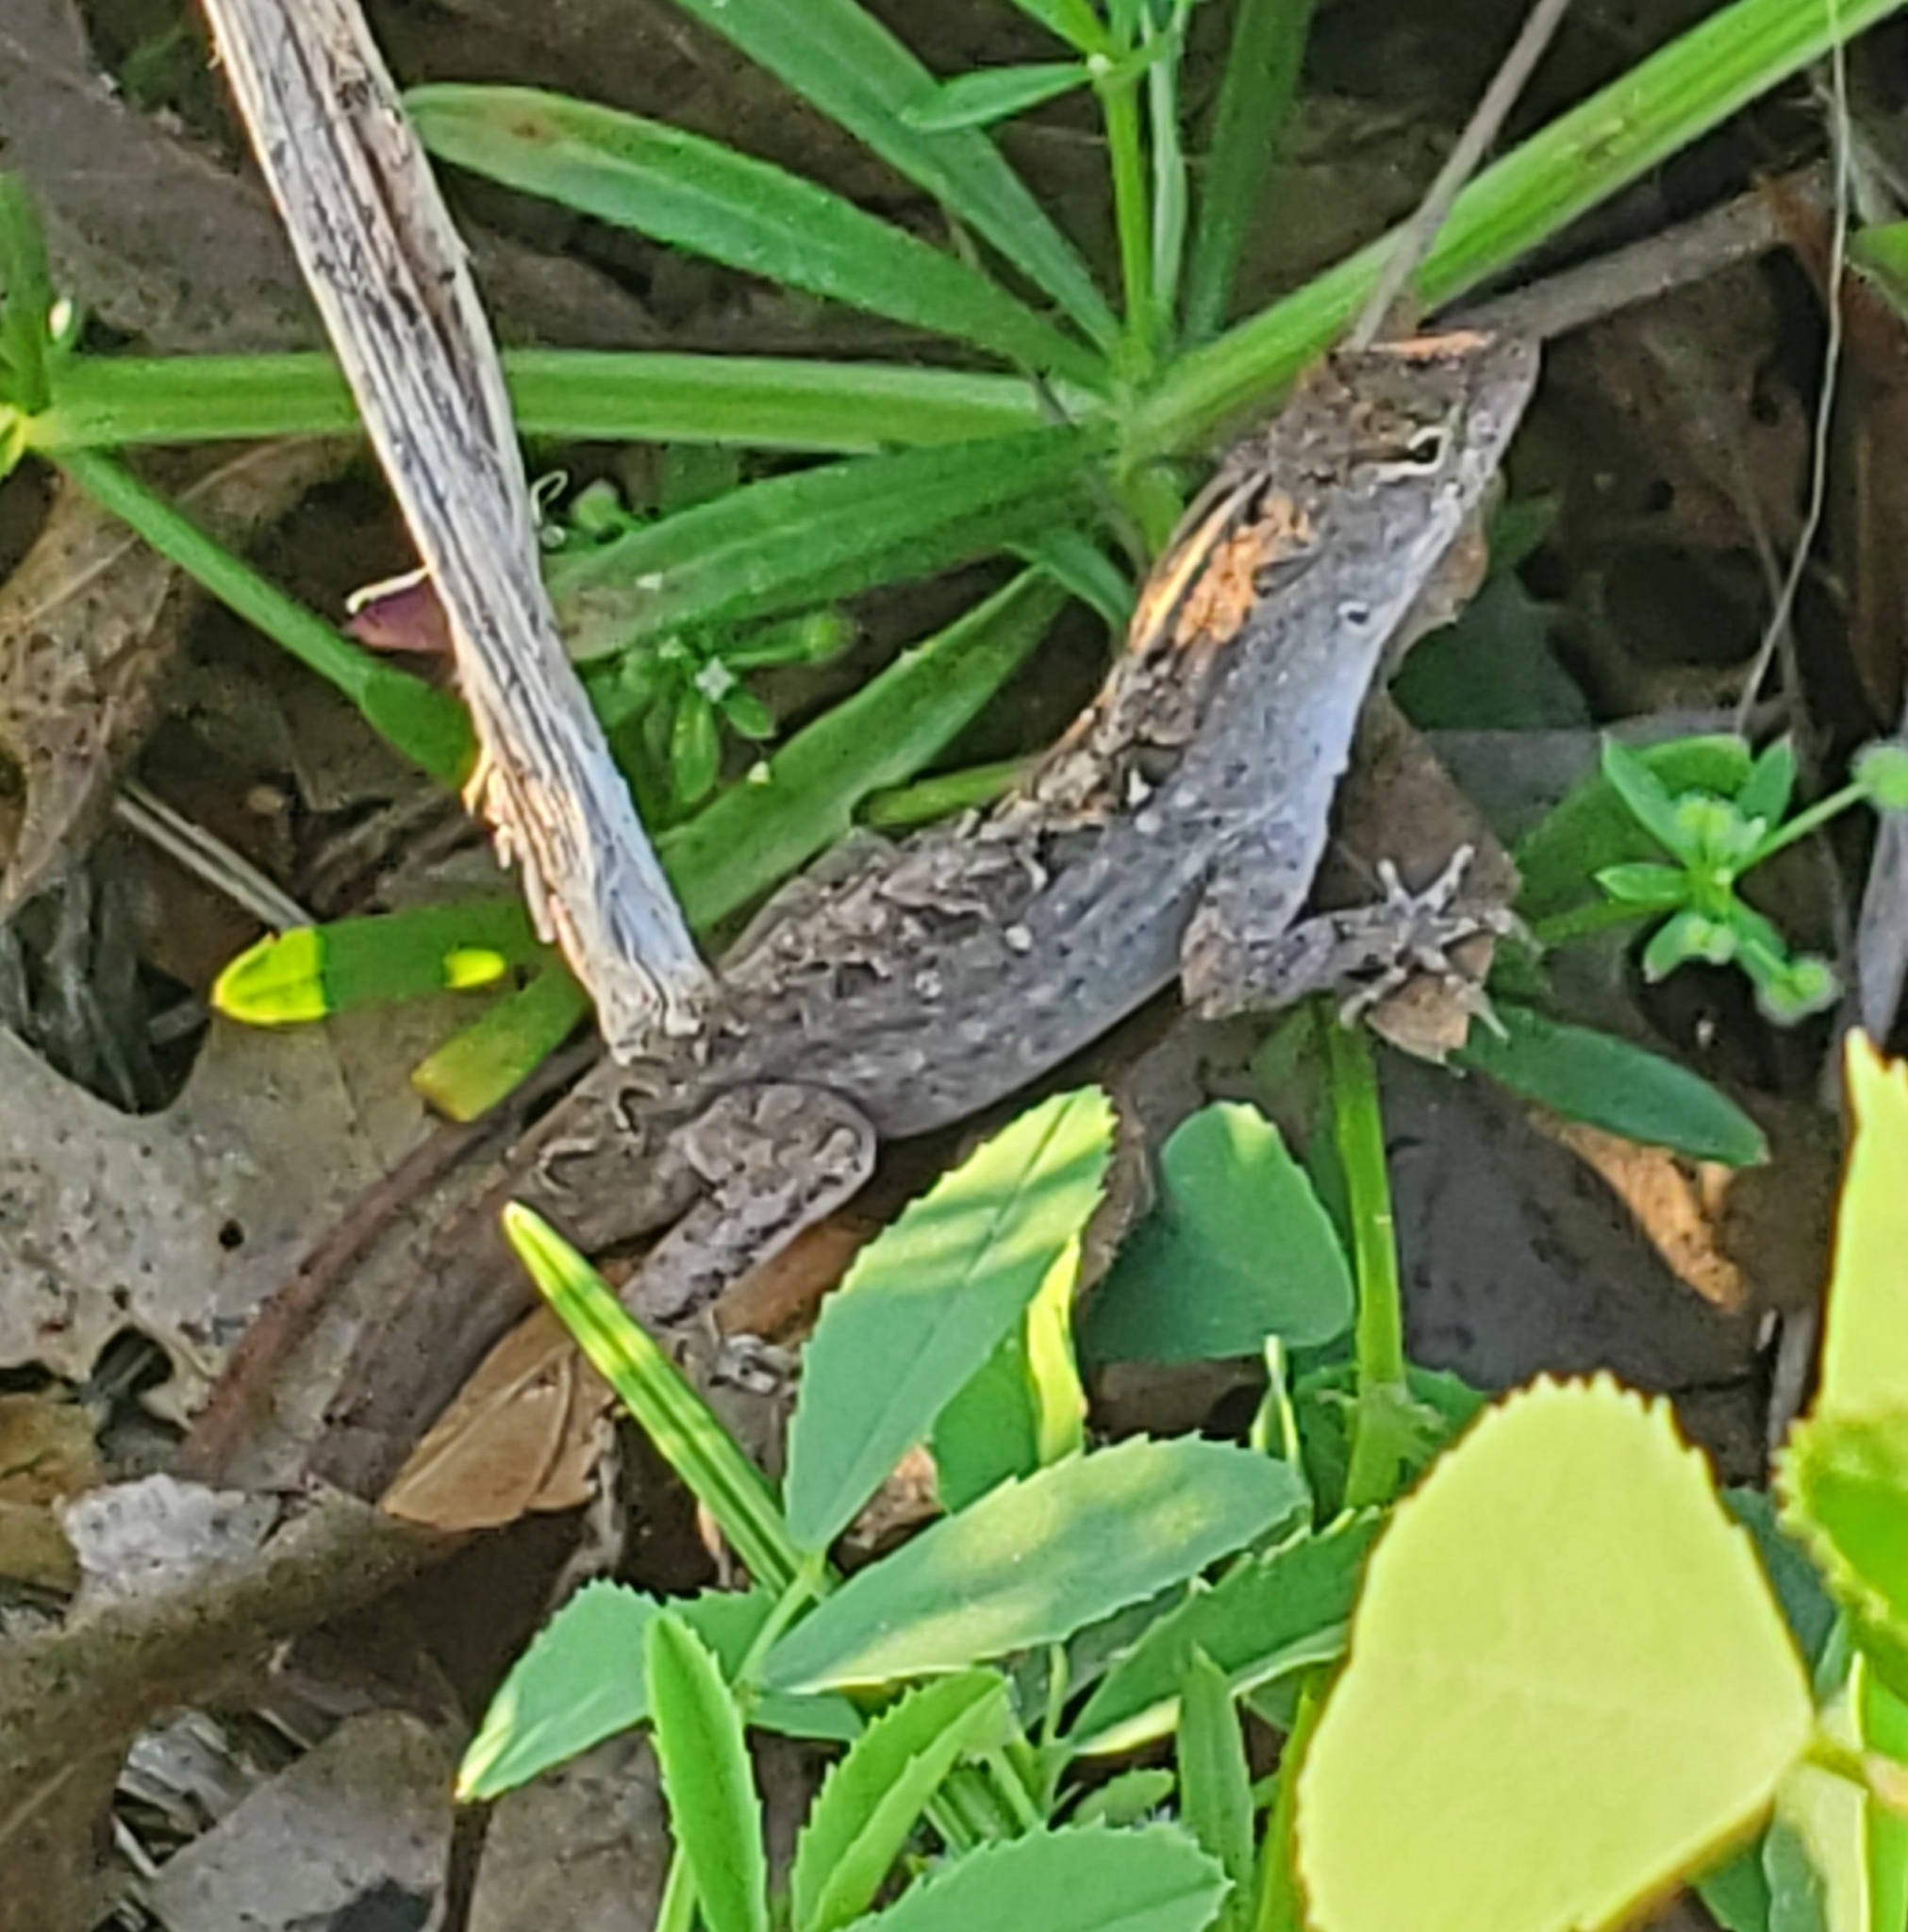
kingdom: Animalia
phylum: Chordata
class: Squamata
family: Dactyloidae
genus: Anolis
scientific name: Anolis sagrei
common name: Brown anole
